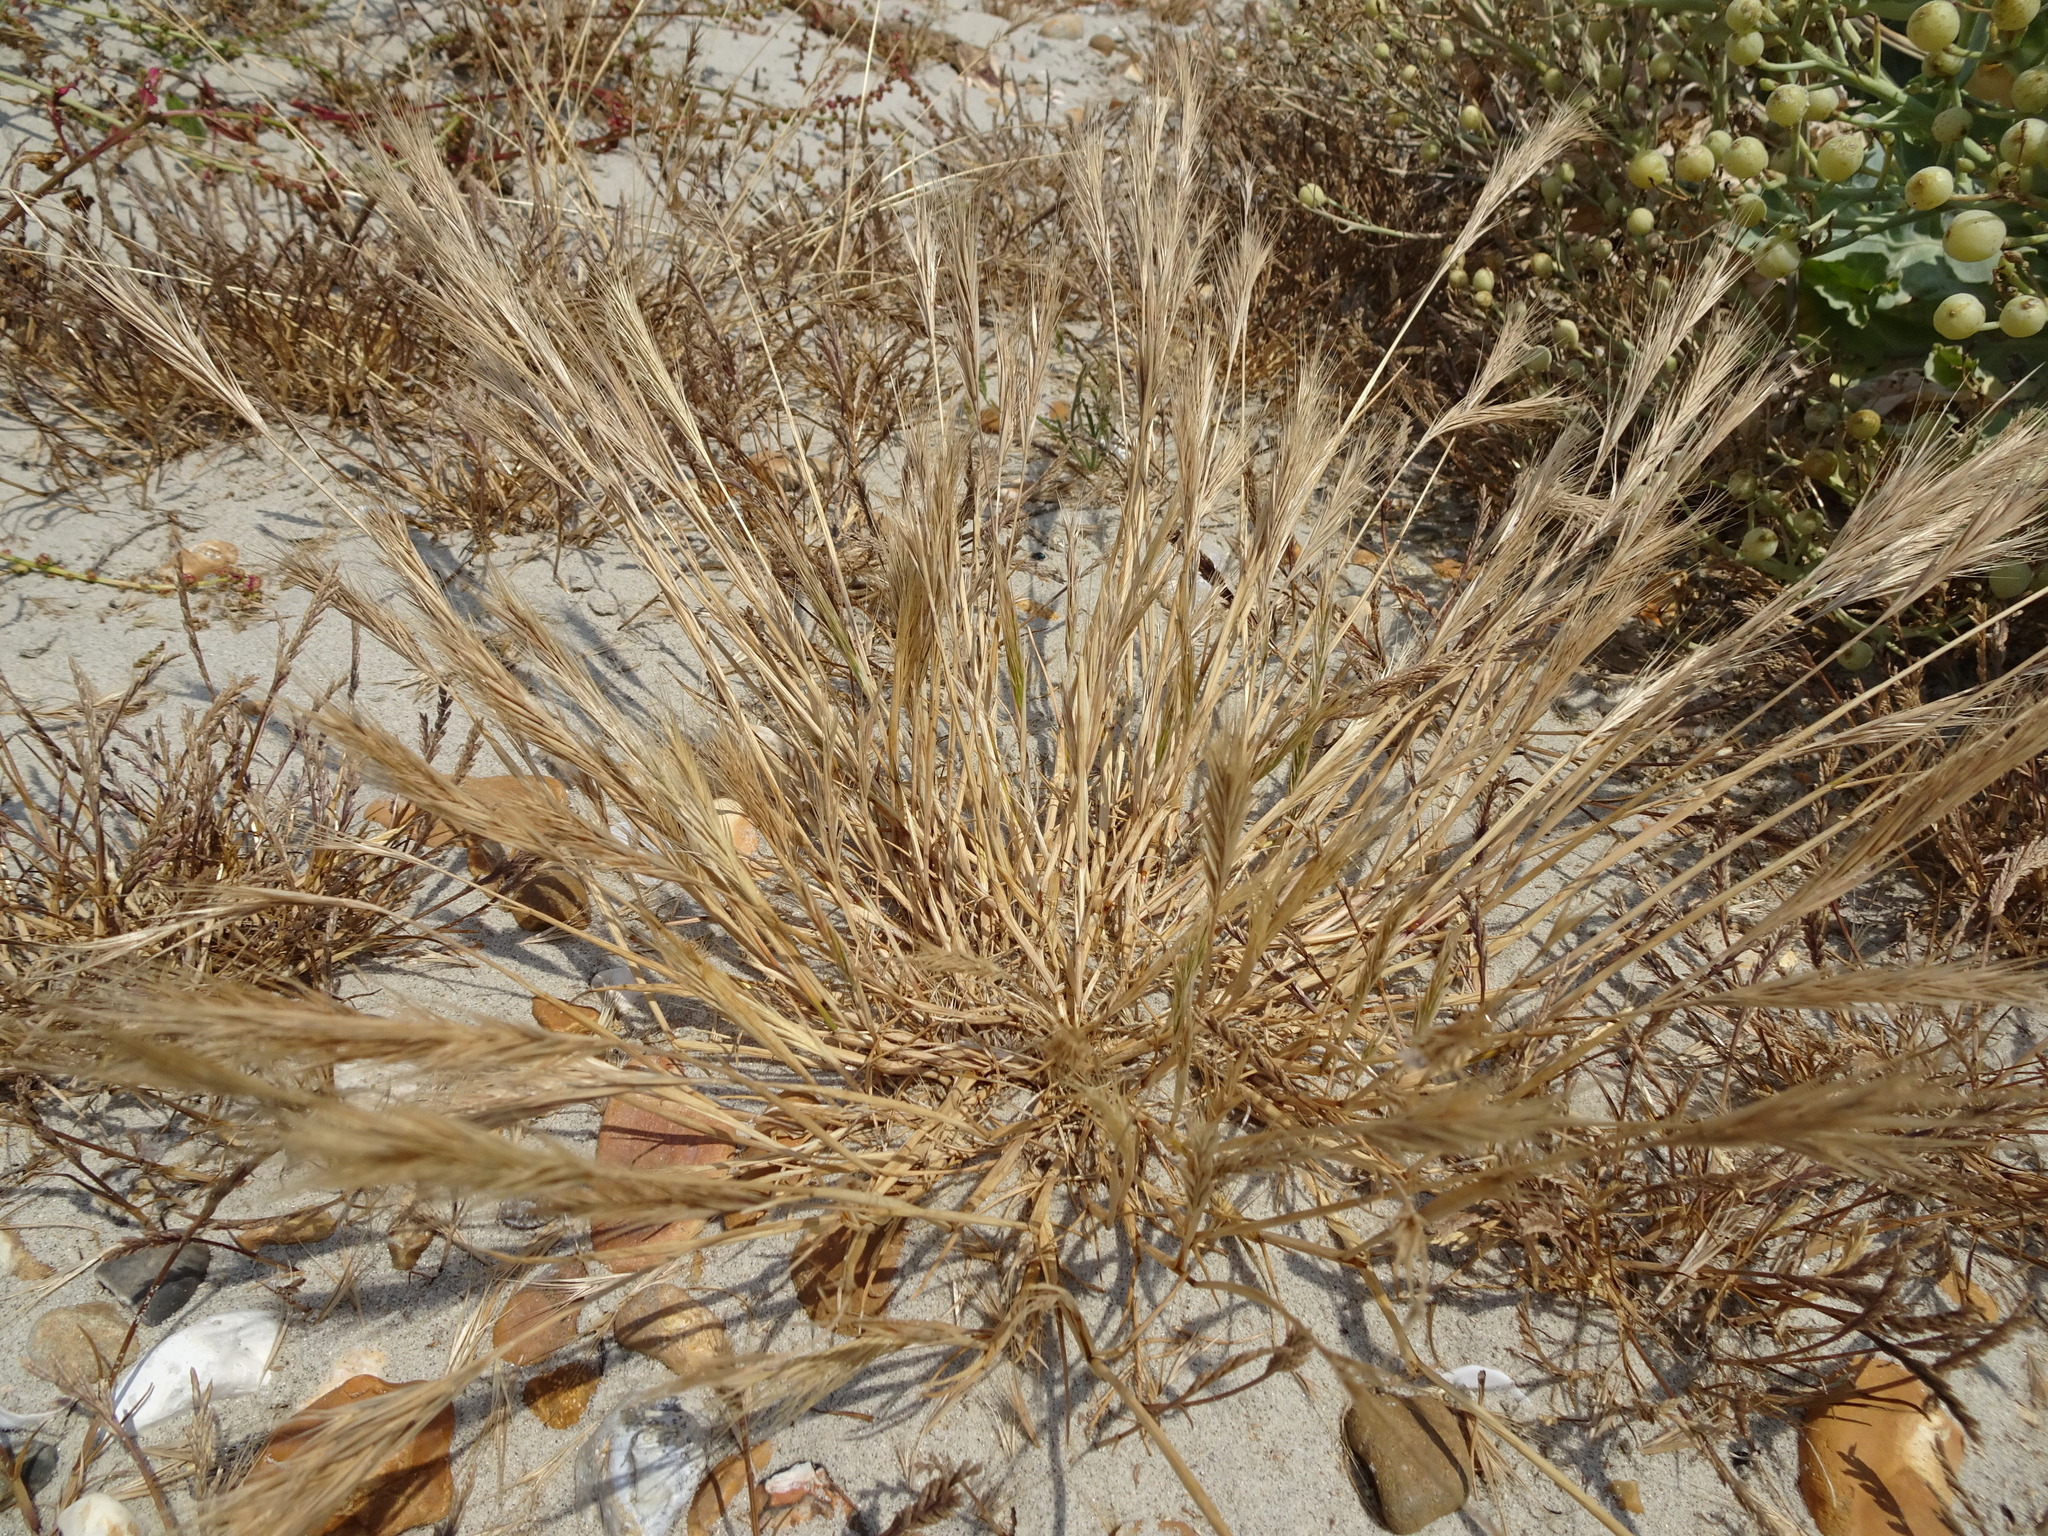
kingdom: Plantae
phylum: Tracheophyta
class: Liliopsida
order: Poales
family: Poaceae
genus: Festuca
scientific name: Festuca fasciculata
